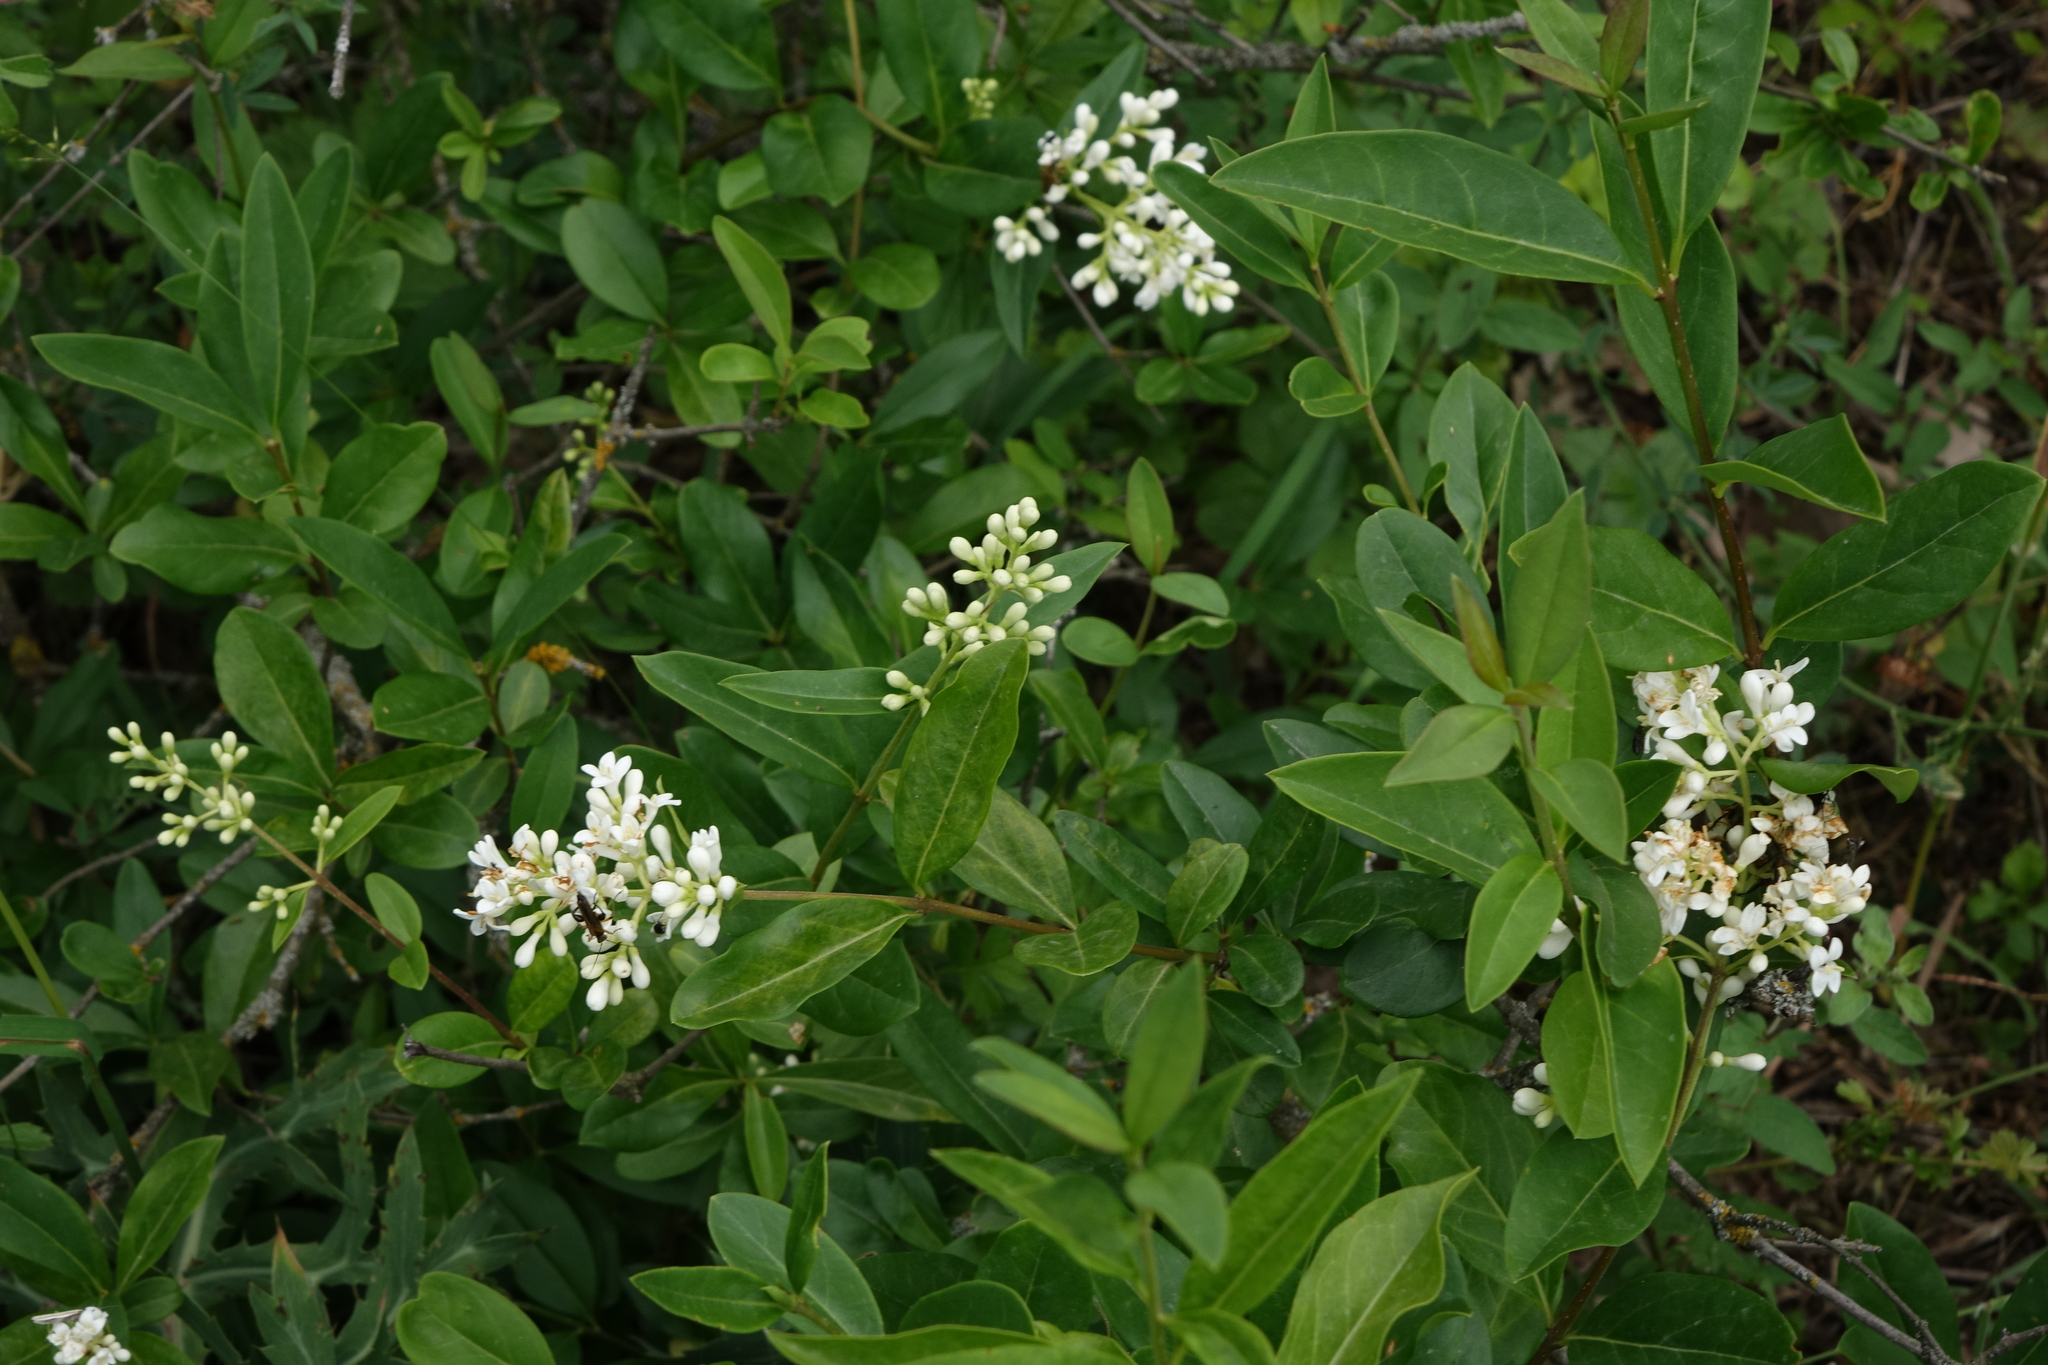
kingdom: Plantae
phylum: Tracheophyta
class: Magnoliopsida
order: Lamiales
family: Oleaceae
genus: Ligustrum
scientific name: Ligustrum vulgare
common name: Wild privet
